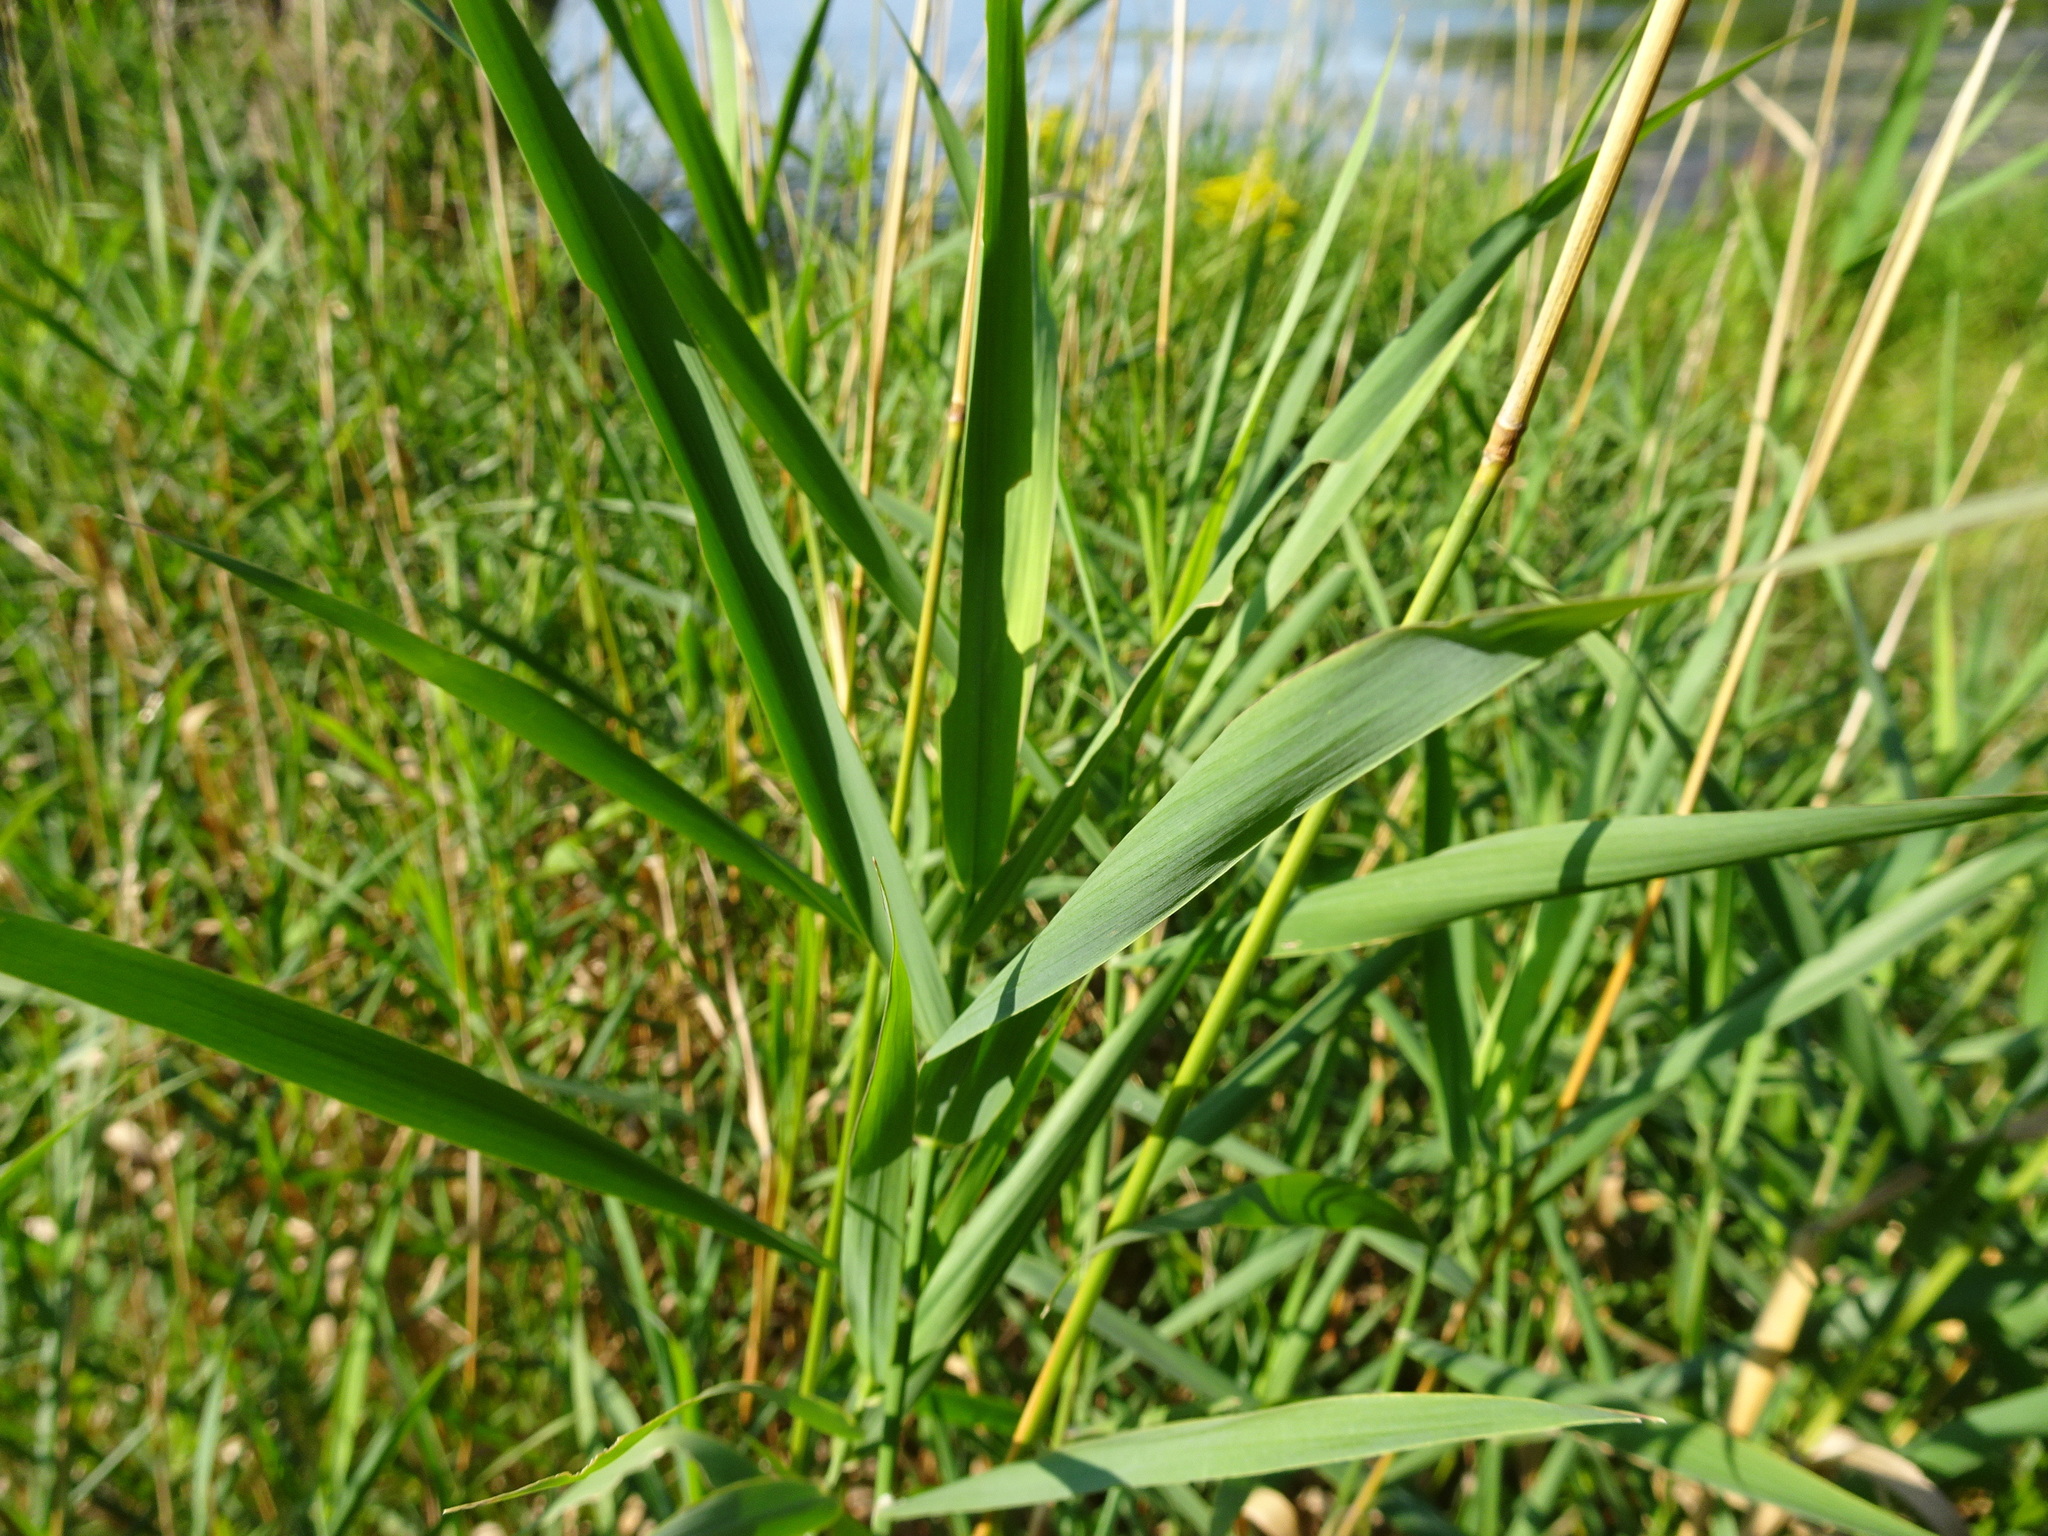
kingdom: Plantae
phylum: Tracheophyta
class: Liliopsida
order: Poales
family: Poaceae
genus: Phalaris
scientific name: Phalaris arundinacea
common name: Reed canary-grass
